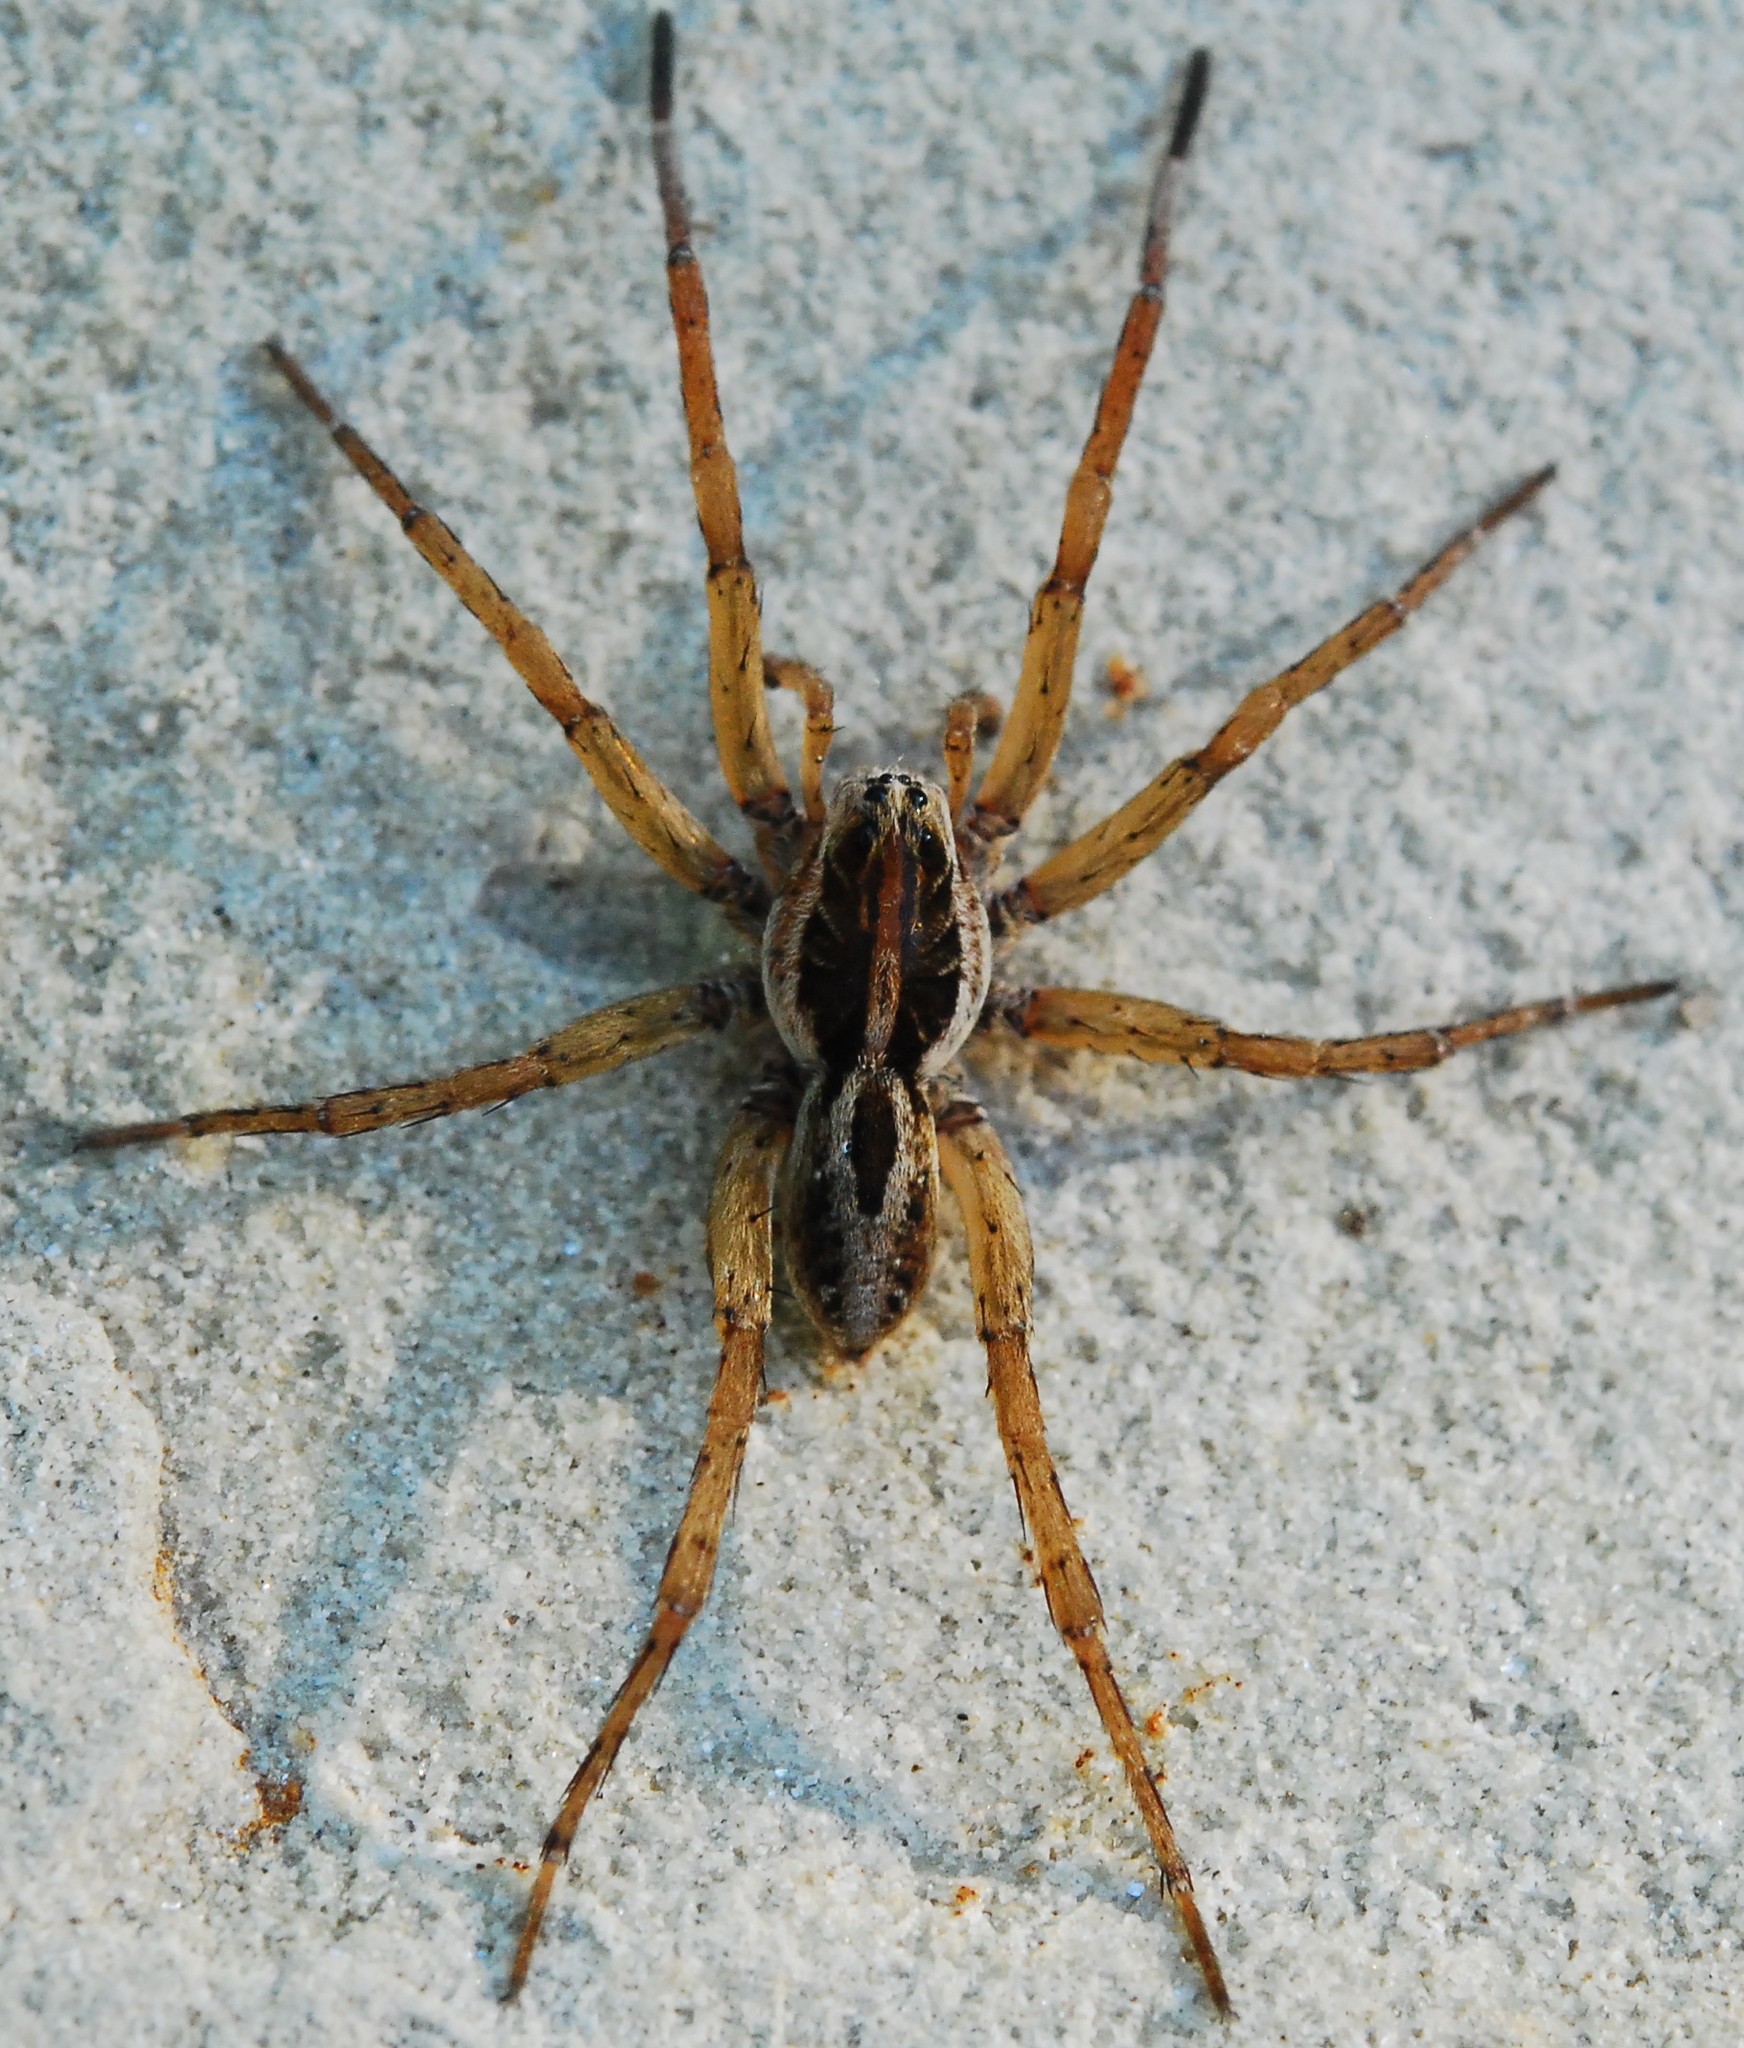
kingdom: Animalia
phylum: Arthropoda
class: Arachnida
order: Araneae
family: Lycosidae
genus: Tigrosa
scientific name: Tigrosa annexa
